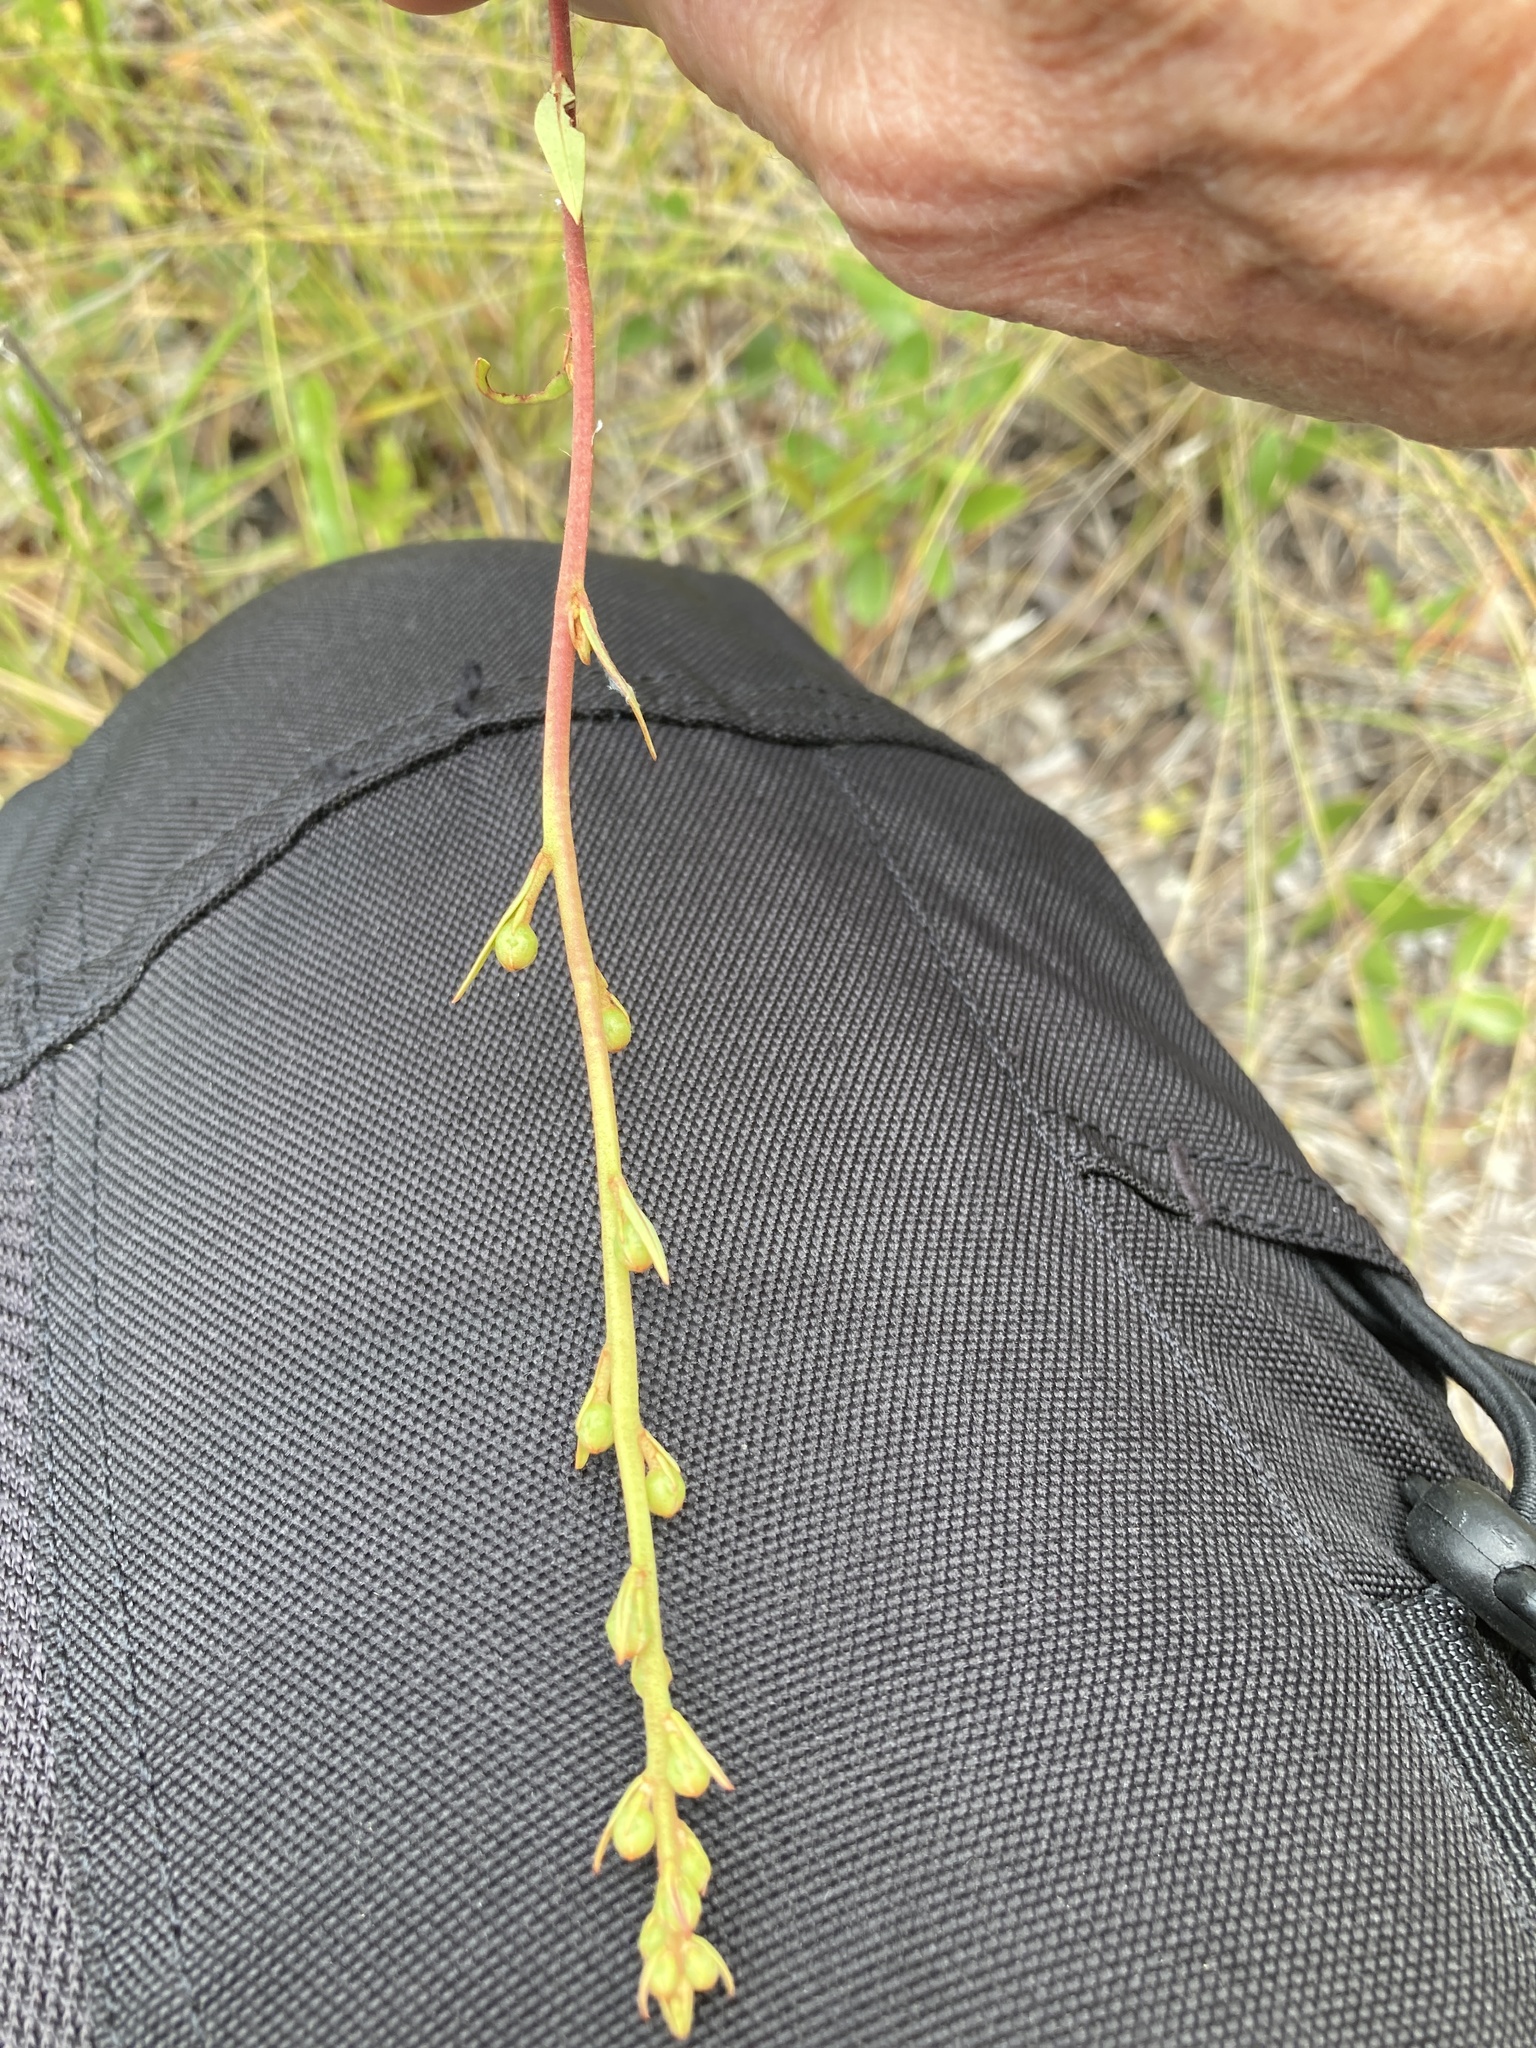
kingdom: Plantae
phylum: Tracheophyta
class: Magnoliopsida
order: Ericales
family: Ericaceae
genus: Bejaria
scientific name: Bejaria racemosa
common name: Tarflower
